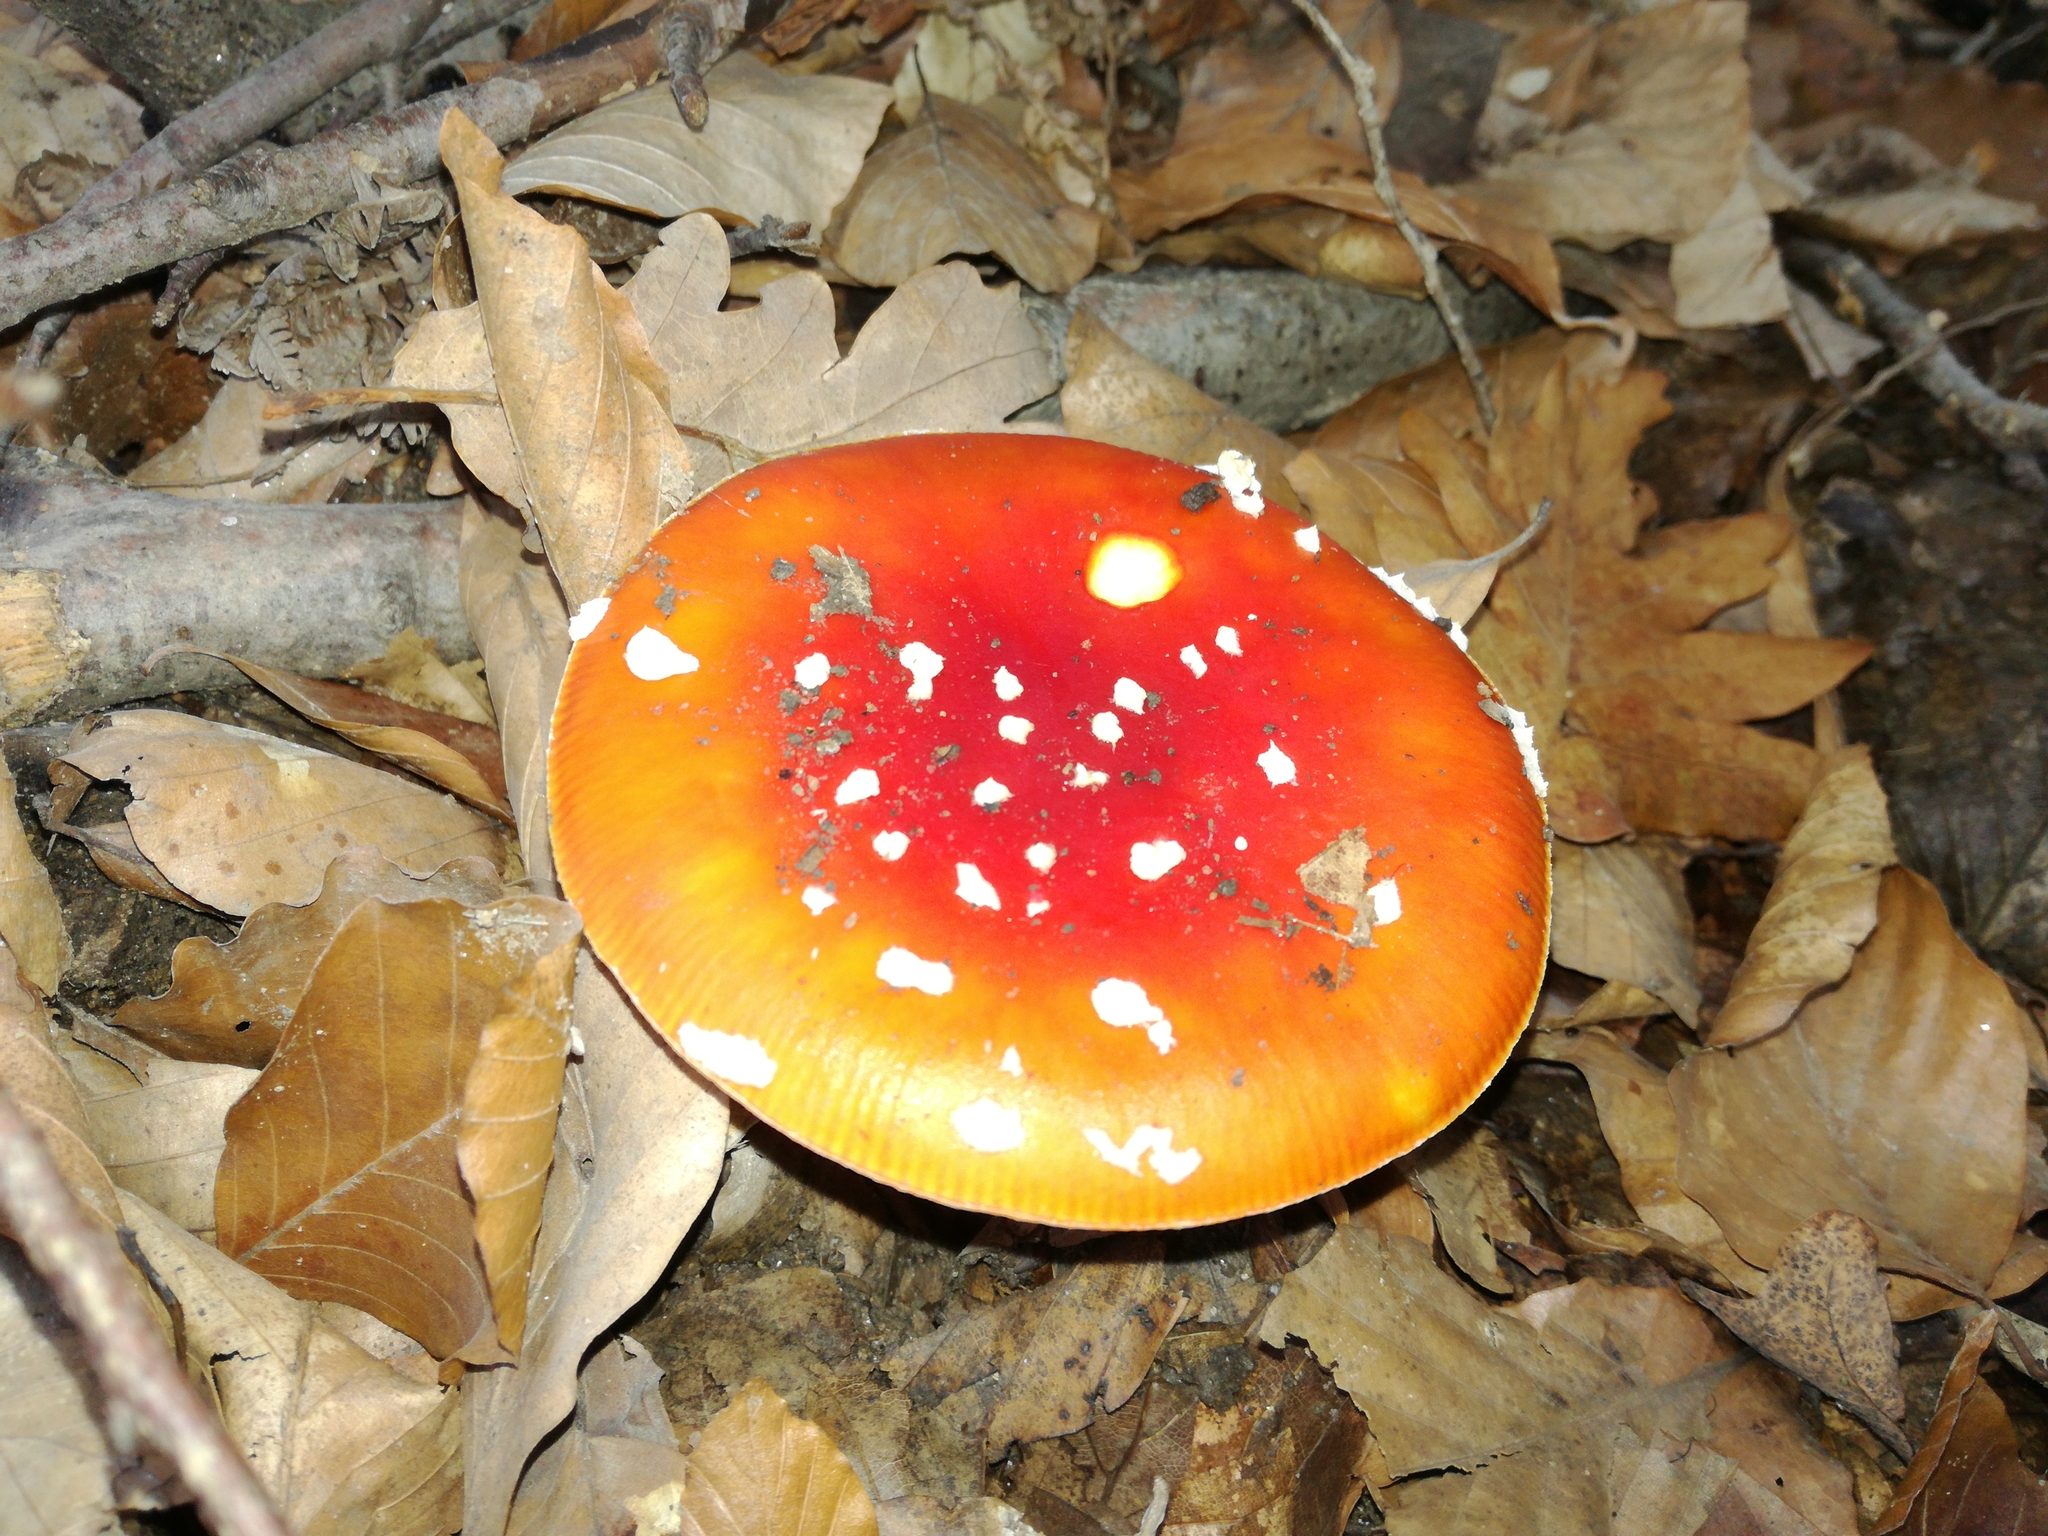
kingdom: Fungi
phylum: Basidiomycota
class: Agaricomycetes
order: Agaricales
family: Amanitaceae
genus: Amanita
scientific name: Amanita muscaria
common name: Fly agaric
